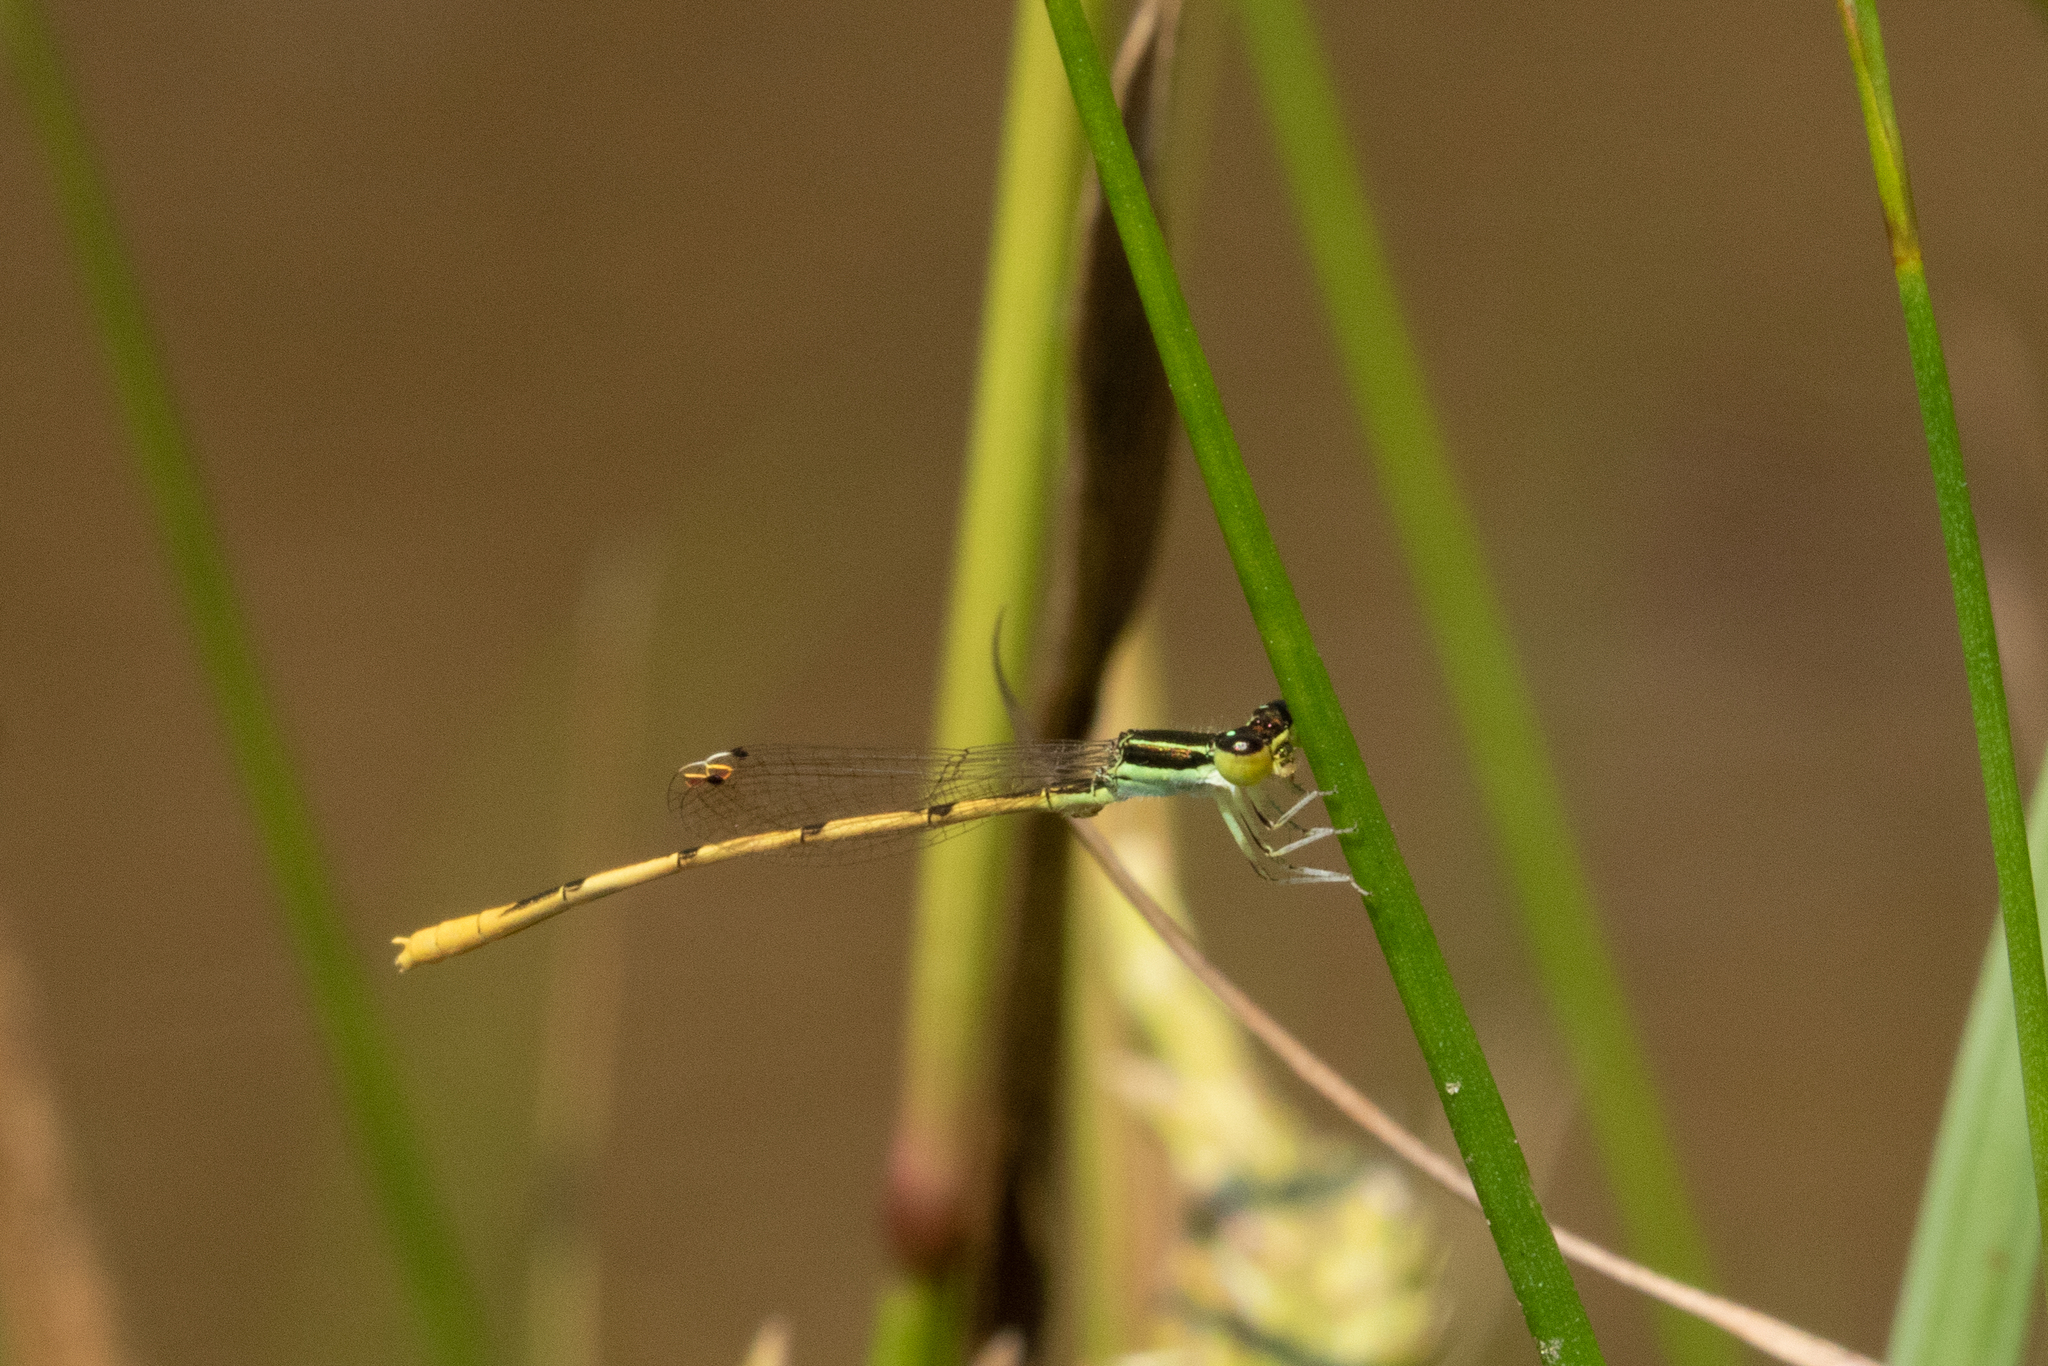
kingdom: Animalia
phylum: Arthropoda
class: Insecta
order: Odonata
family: Coenagrionidae
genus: Ischnura
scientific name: Ischnura hastata
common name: Citrine forktail
